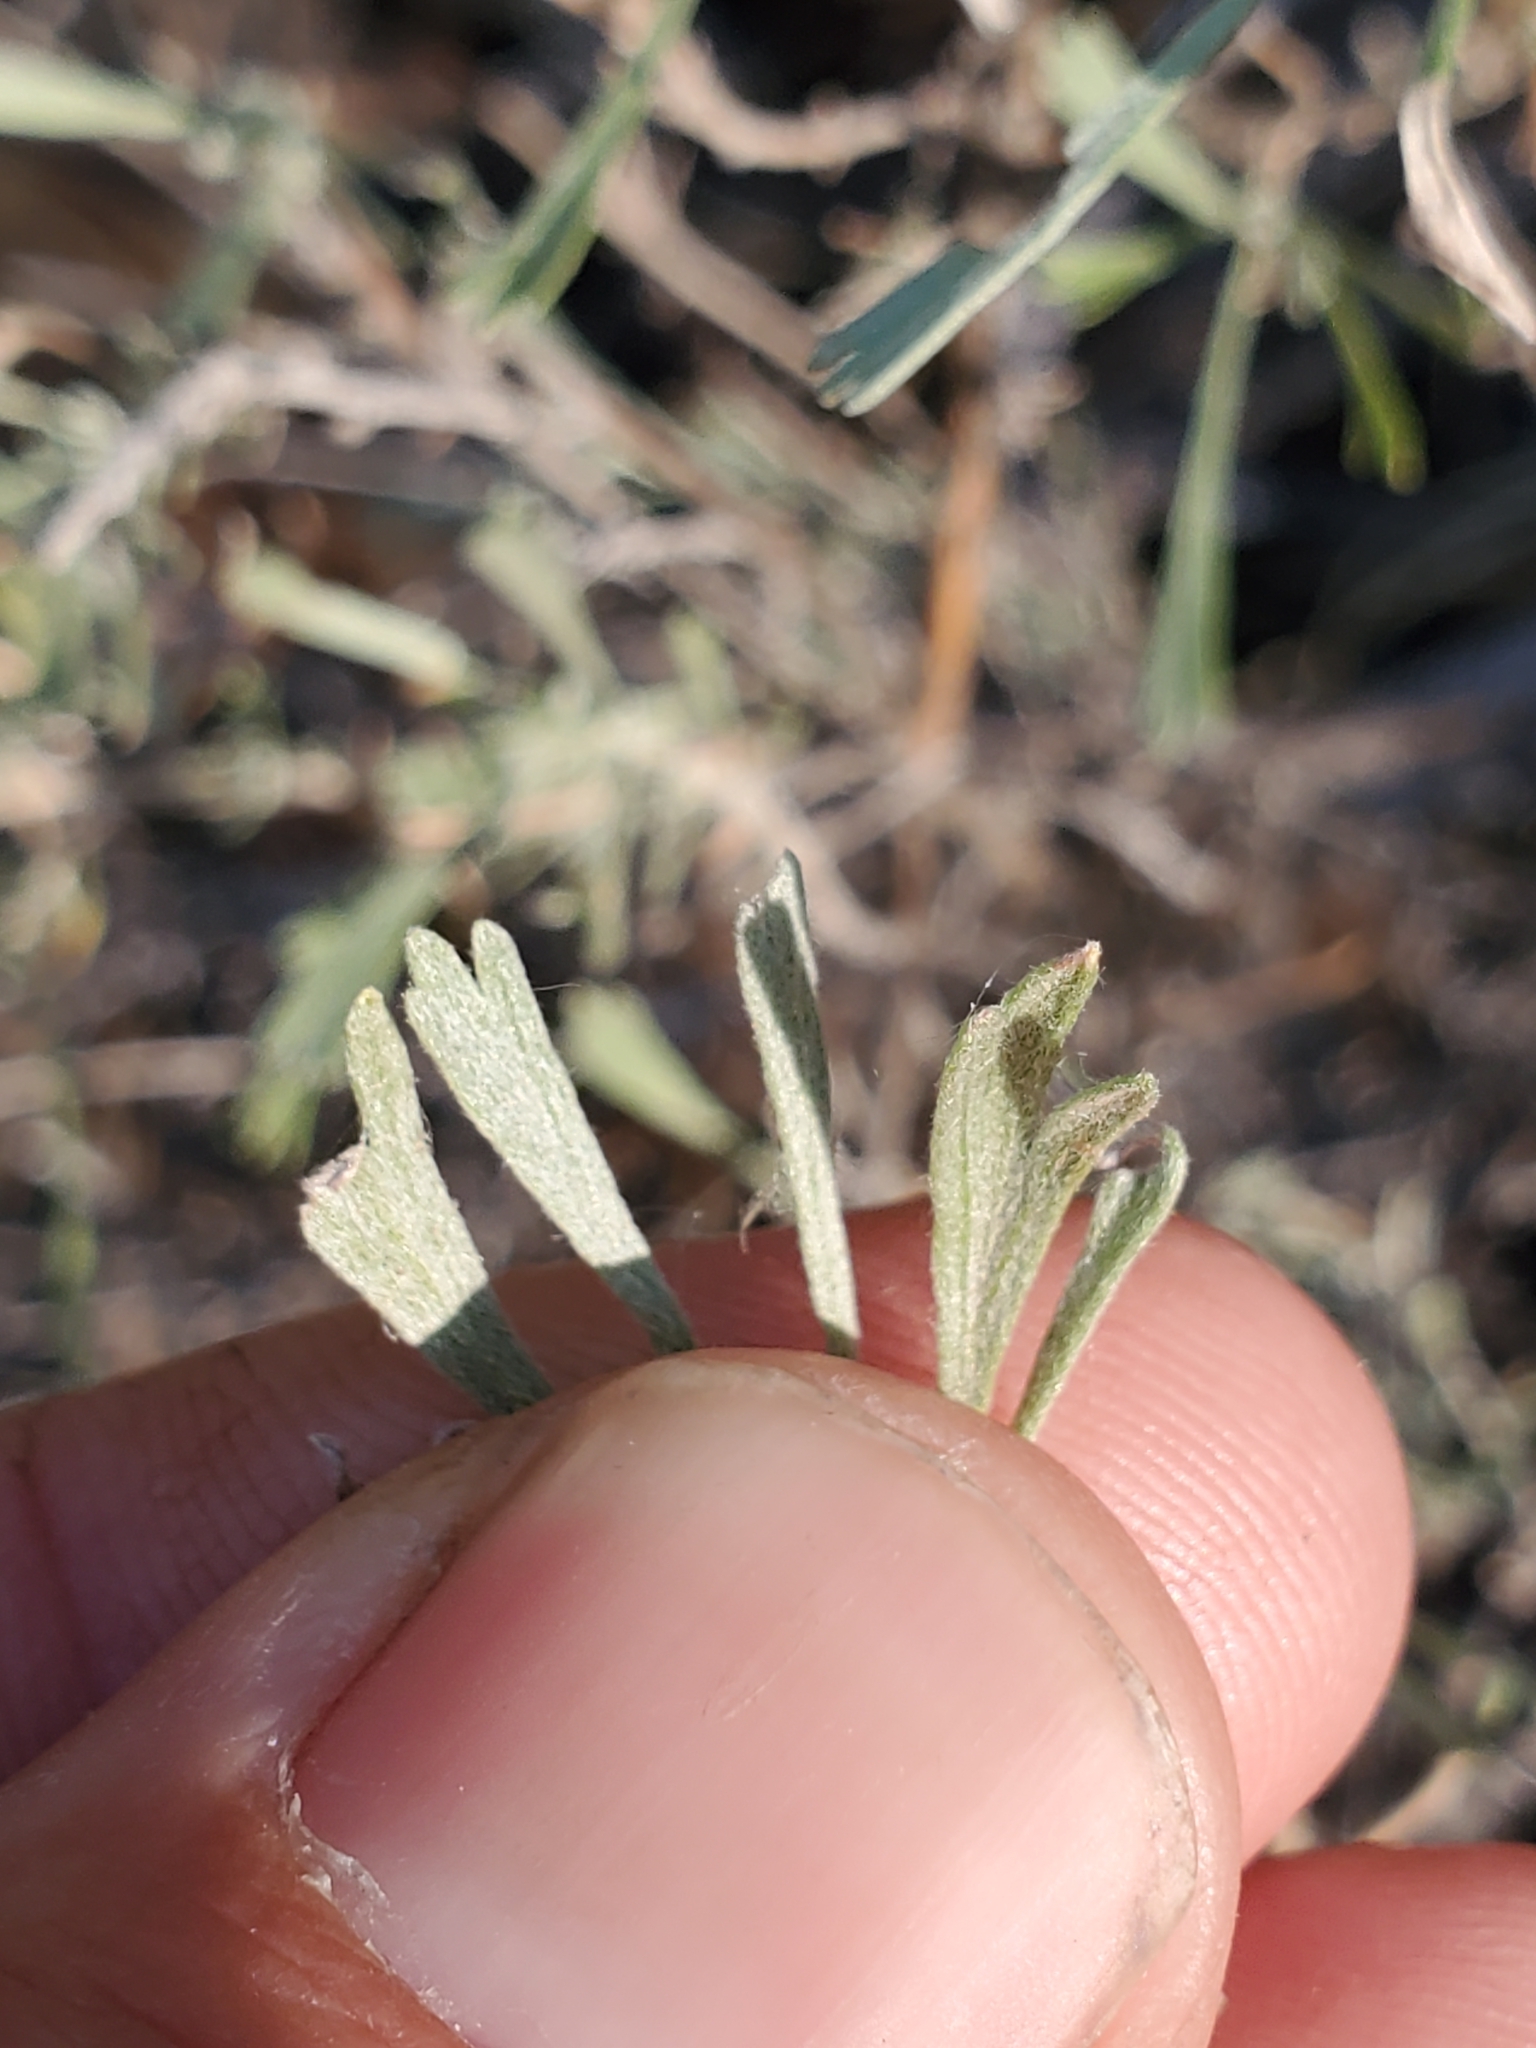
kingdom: Plantae
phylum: Tracheophyta
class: Magnoliopsida
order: Asterales
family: Asteraceae
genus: Artemisia
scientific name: Artemisia tridentata
